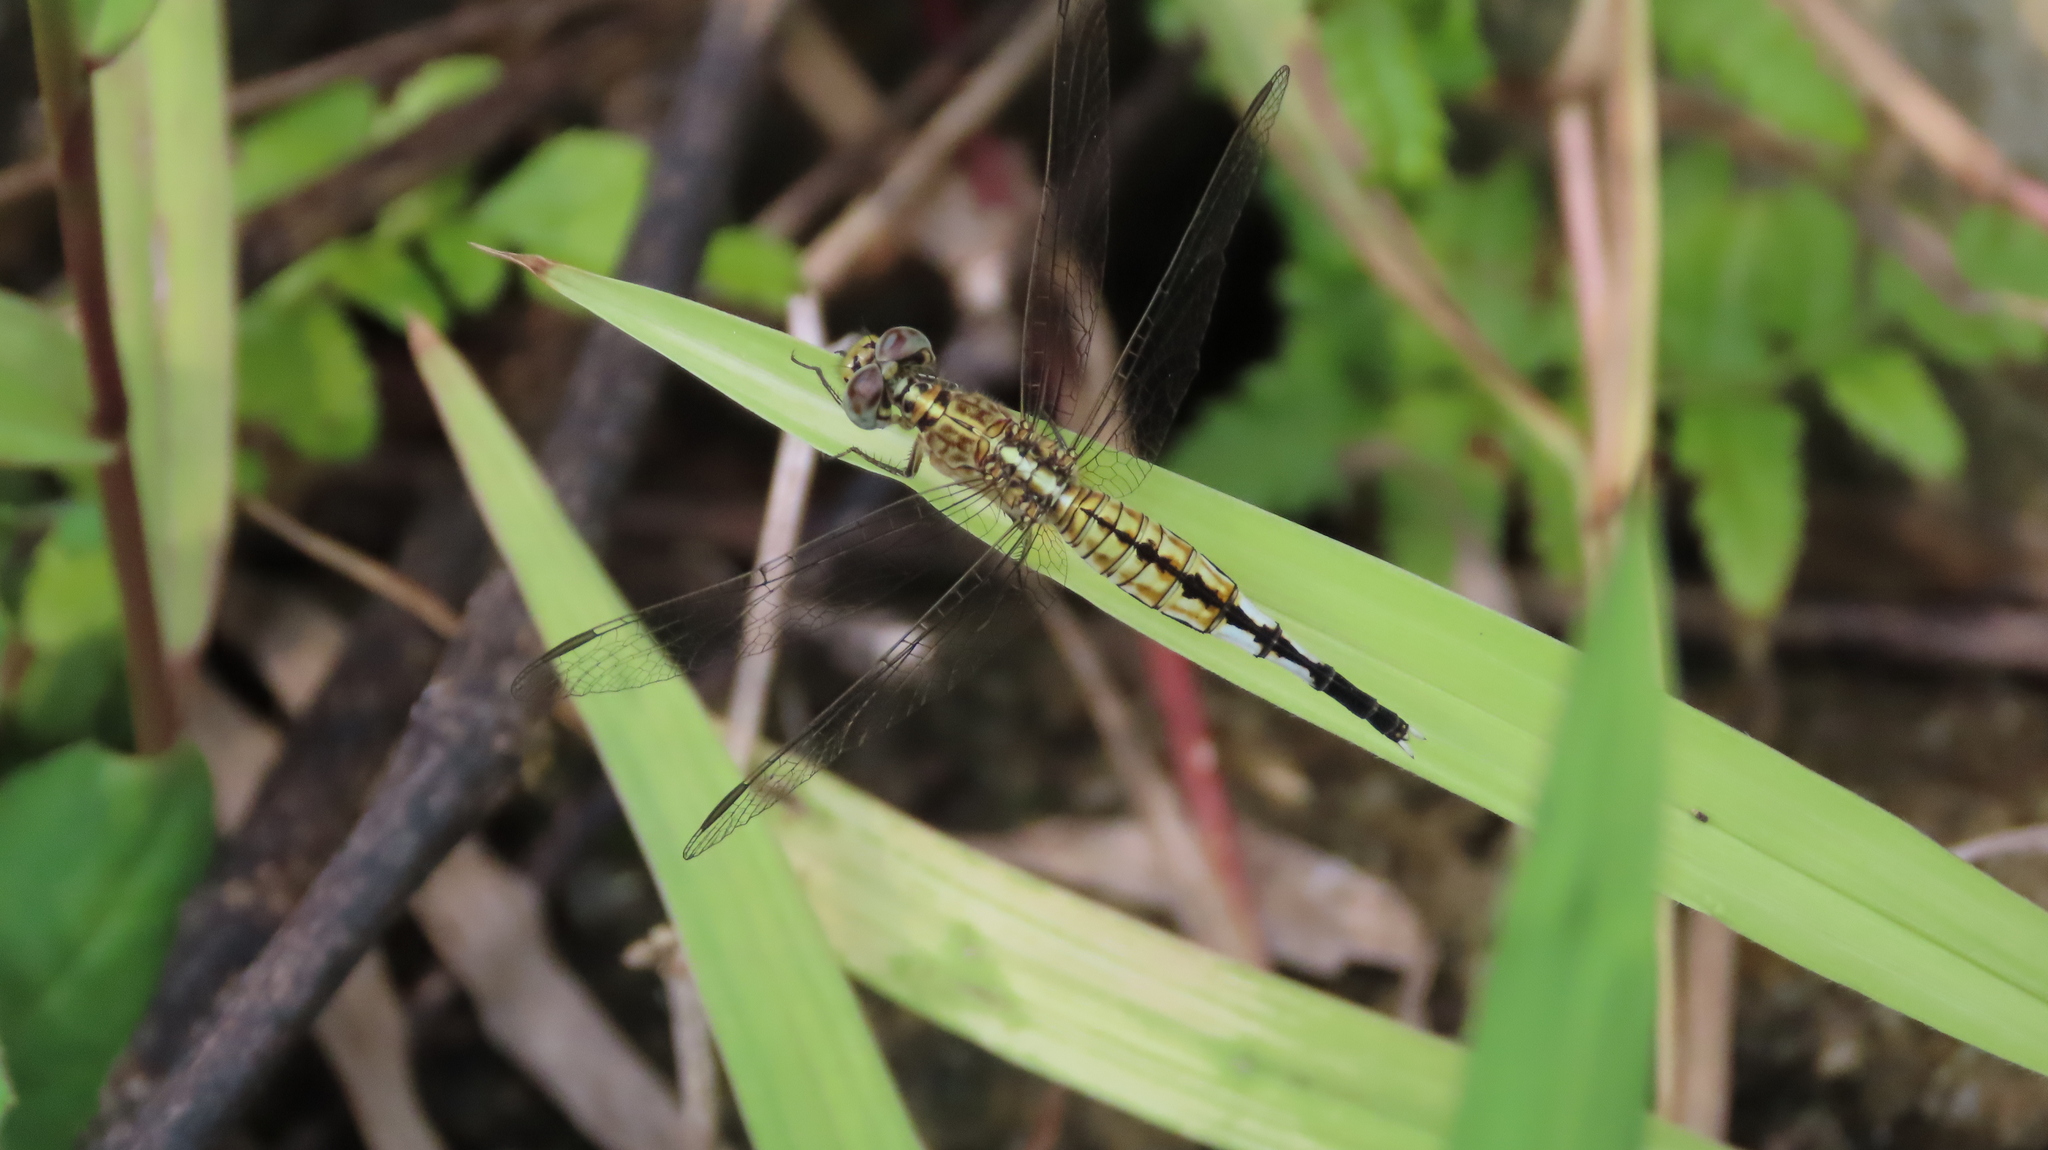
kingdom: Animalia
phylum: Arthropoda
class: Insecta
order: Odonata
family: Libellulidae
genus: Acisoma
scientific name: Acisoma panorpoides
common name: Asian pintail
